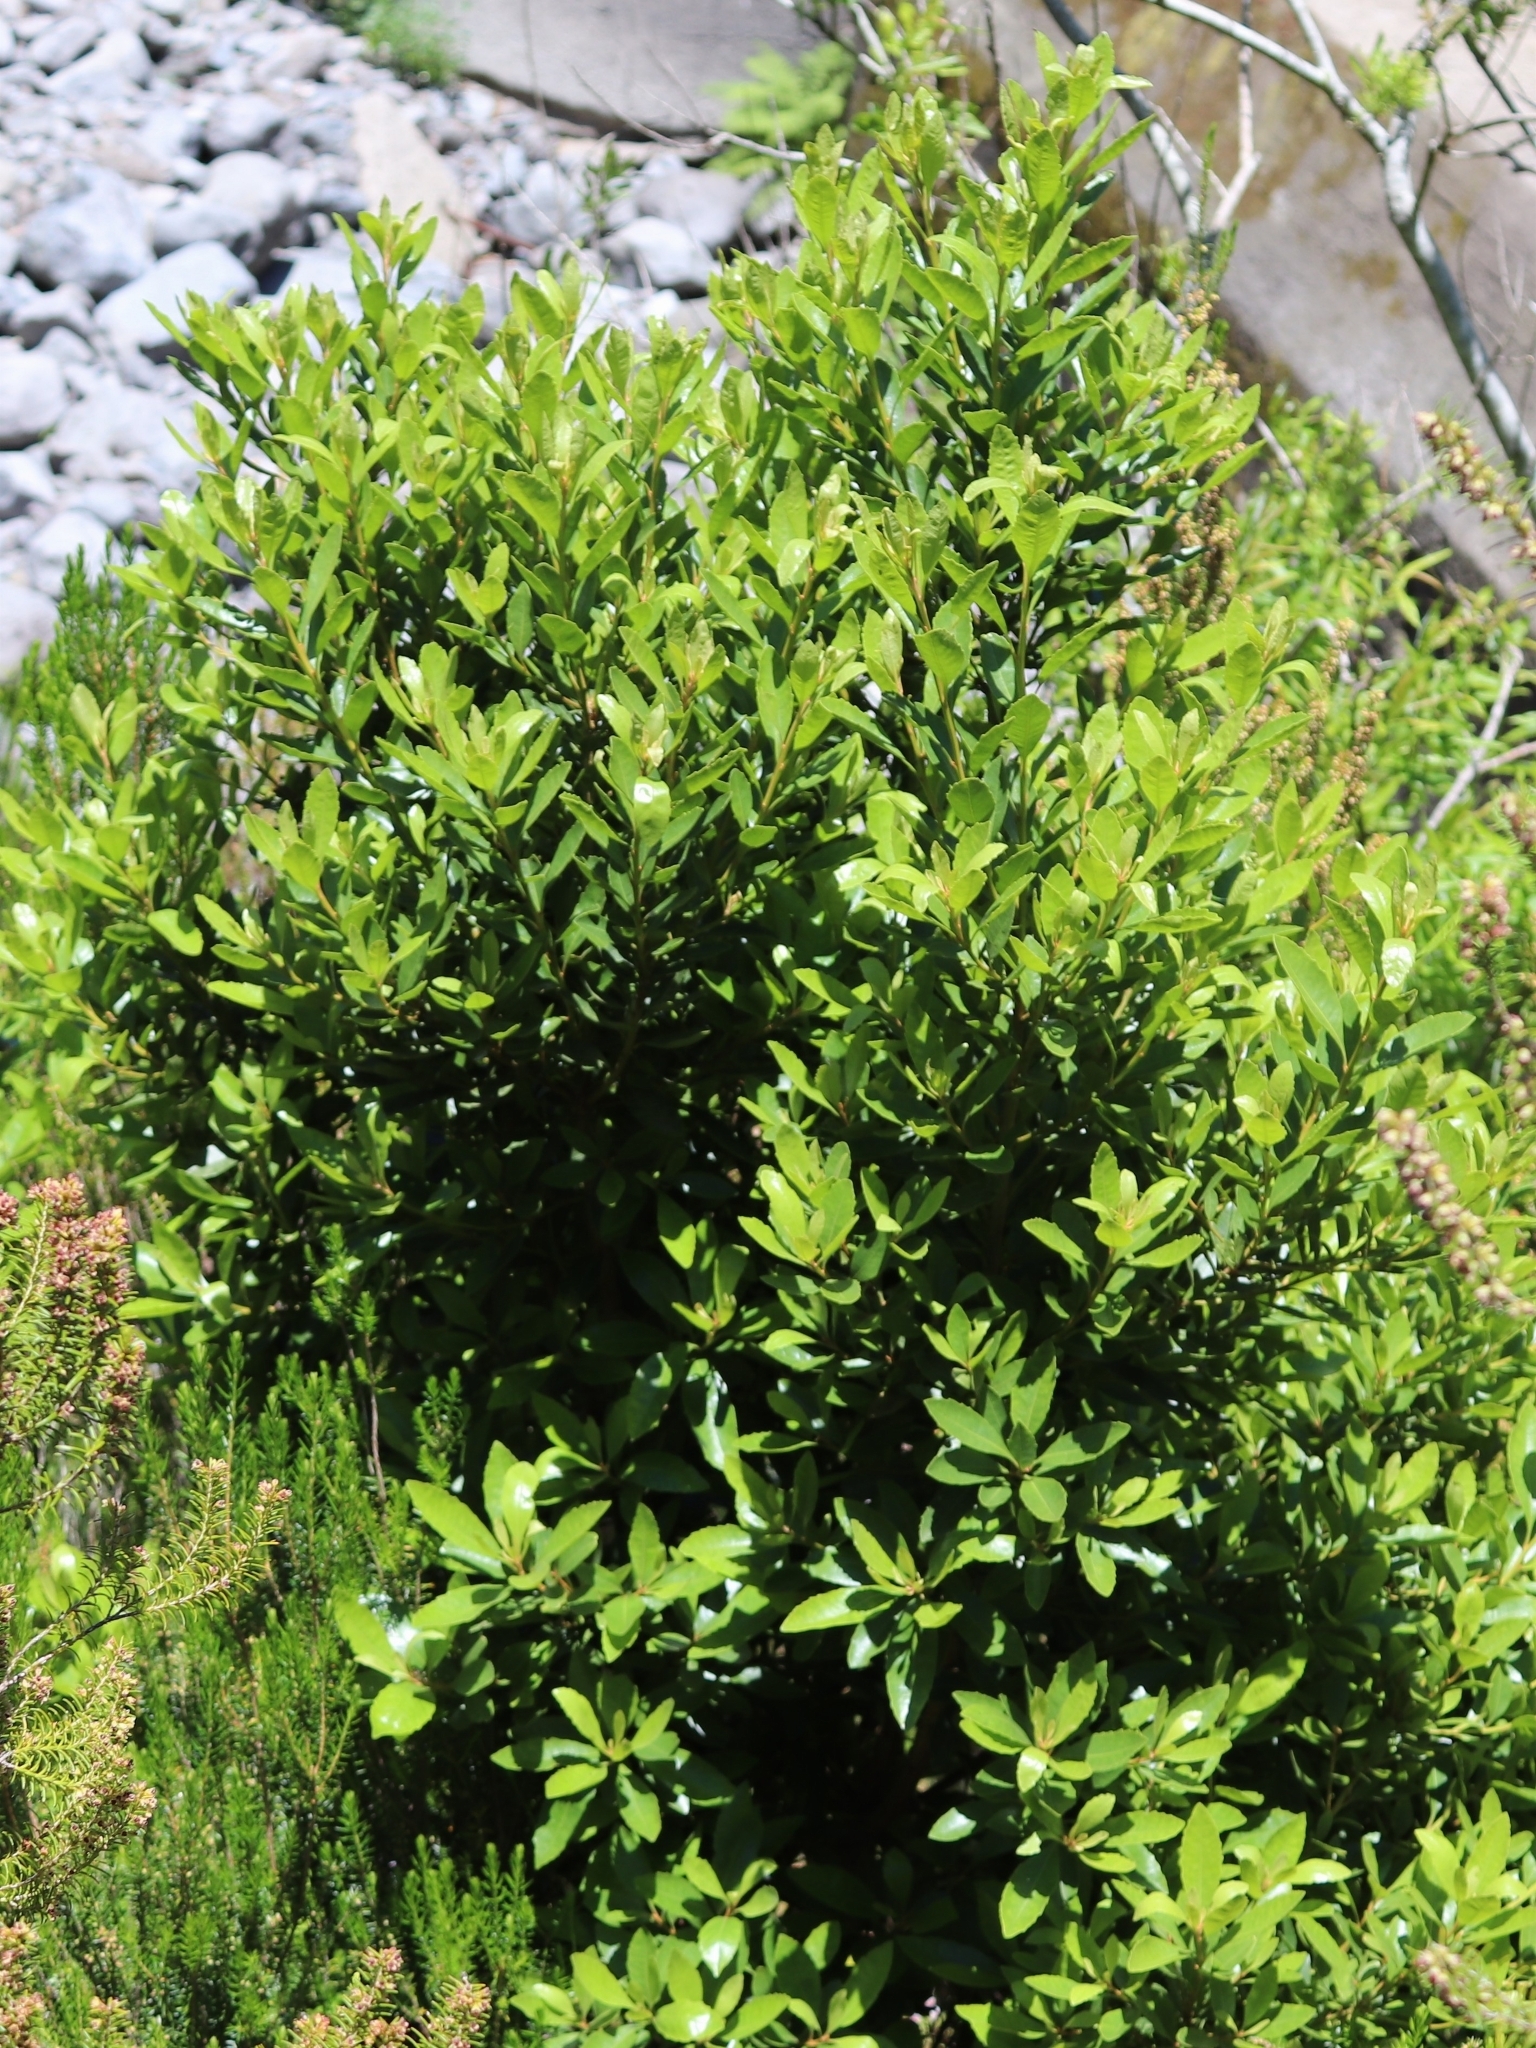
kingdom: Plantae
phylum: Tracheophyta
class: Magnoliopsida
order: Fagales
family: Myricaceae
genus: Morella
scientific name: Morella faya
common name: Firetree
